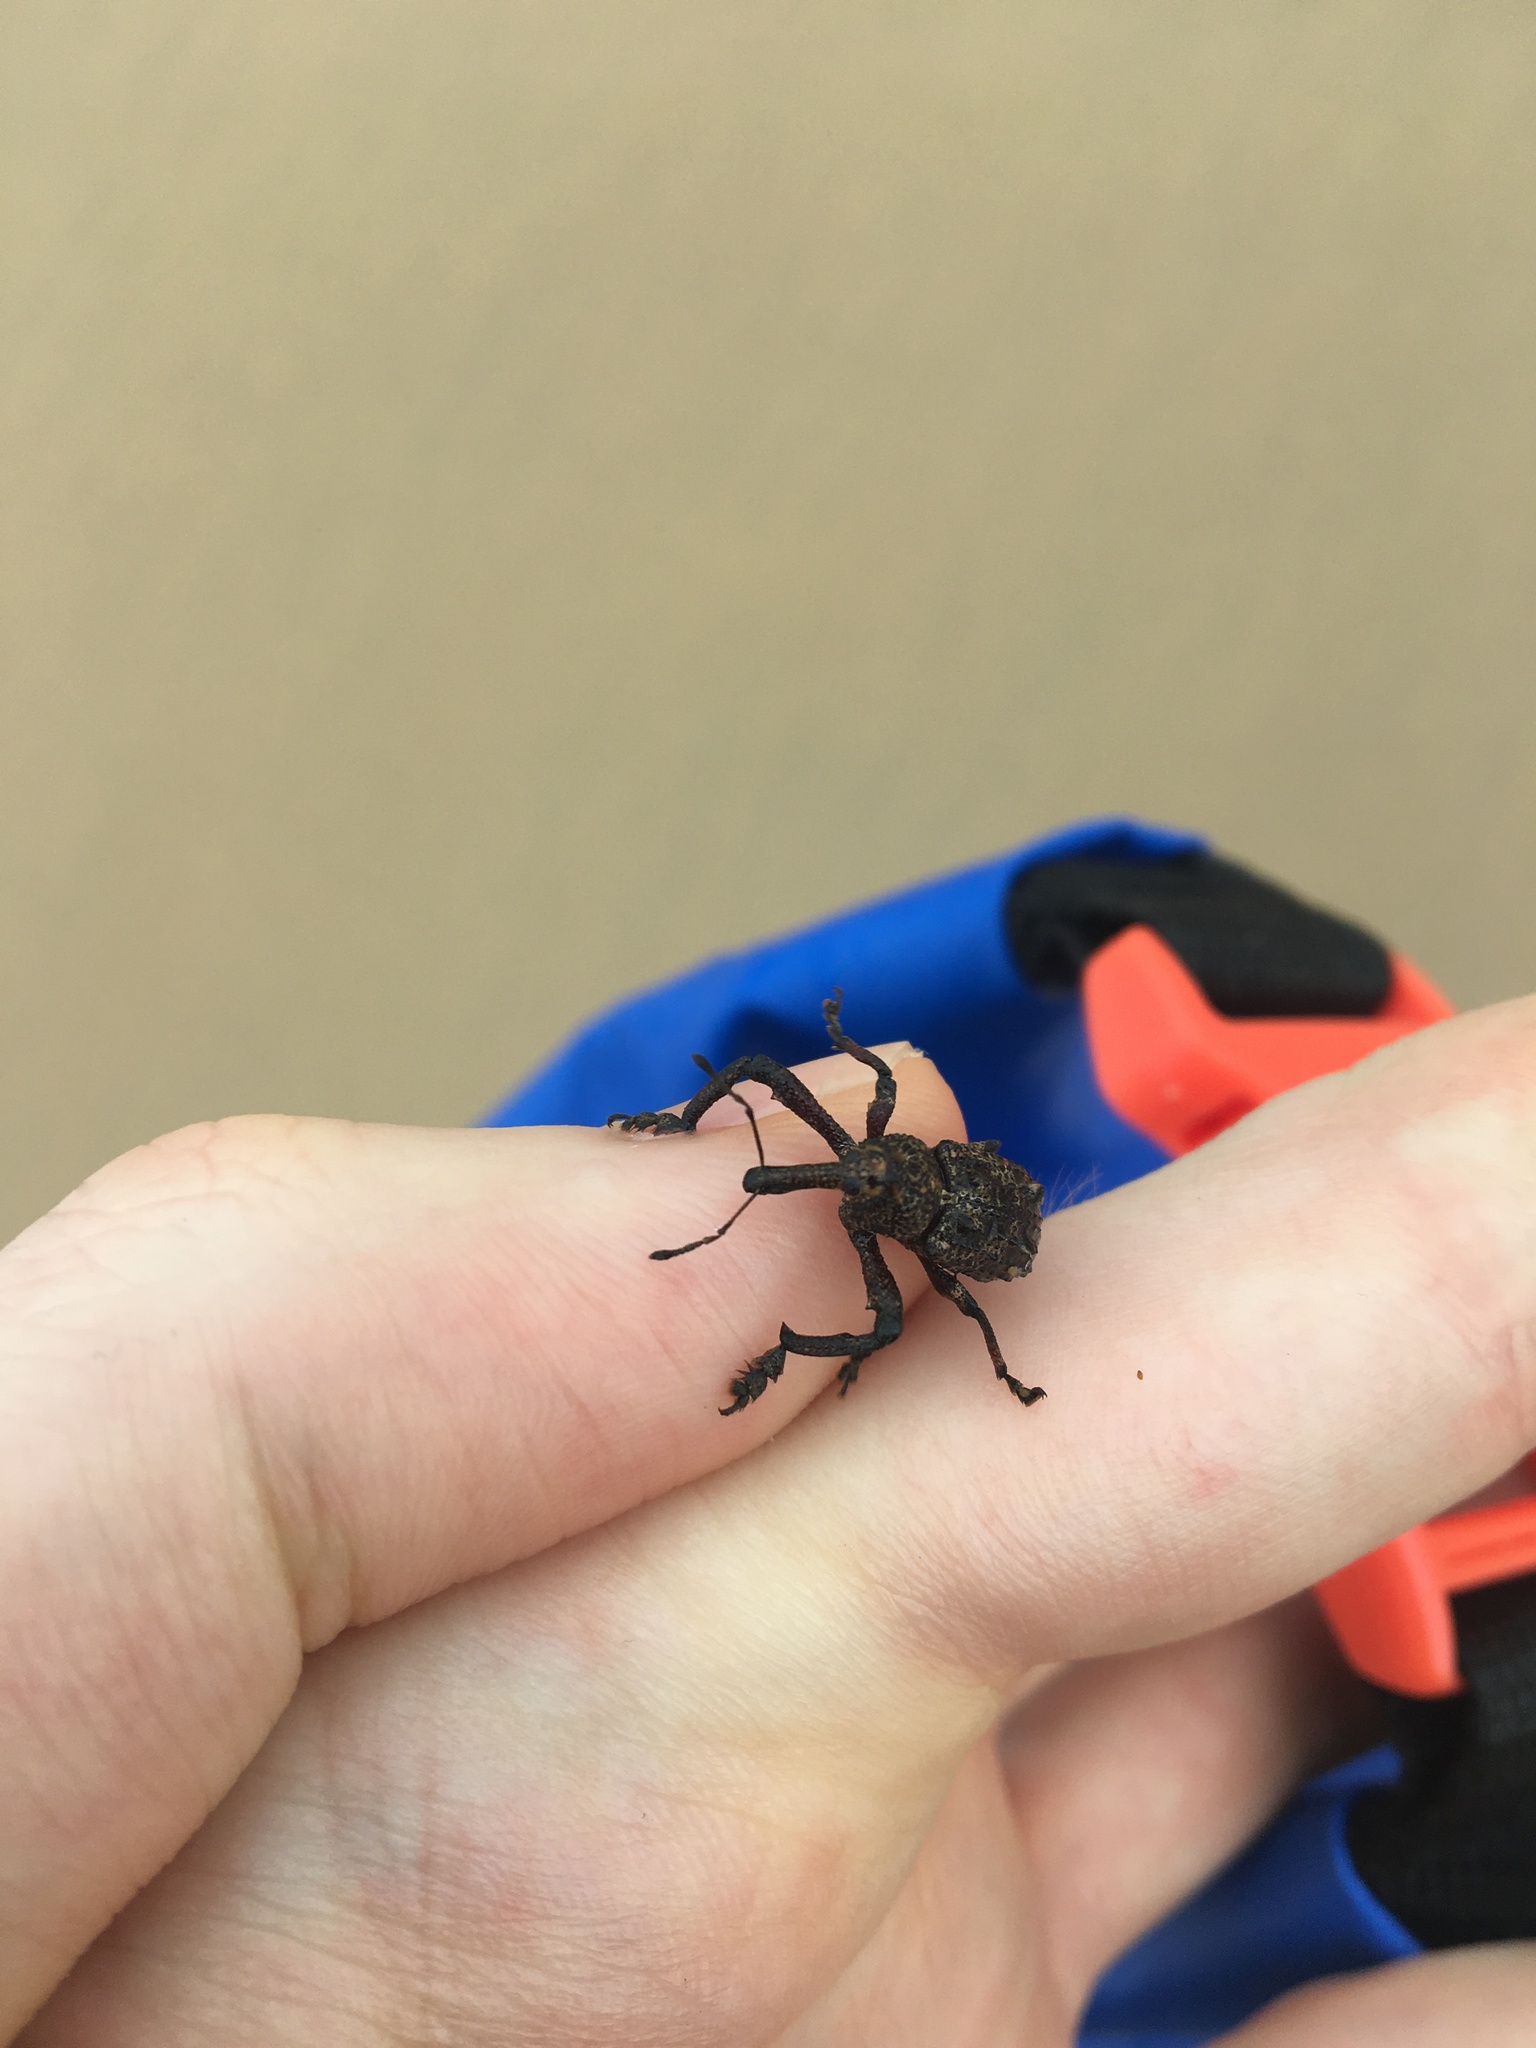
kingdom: Animalia
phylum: Arthropoda
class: Insecta
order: Coleoptera
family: Curculionidae
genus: Orthorhinus
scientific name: Orthorhinus cylindrirostris
